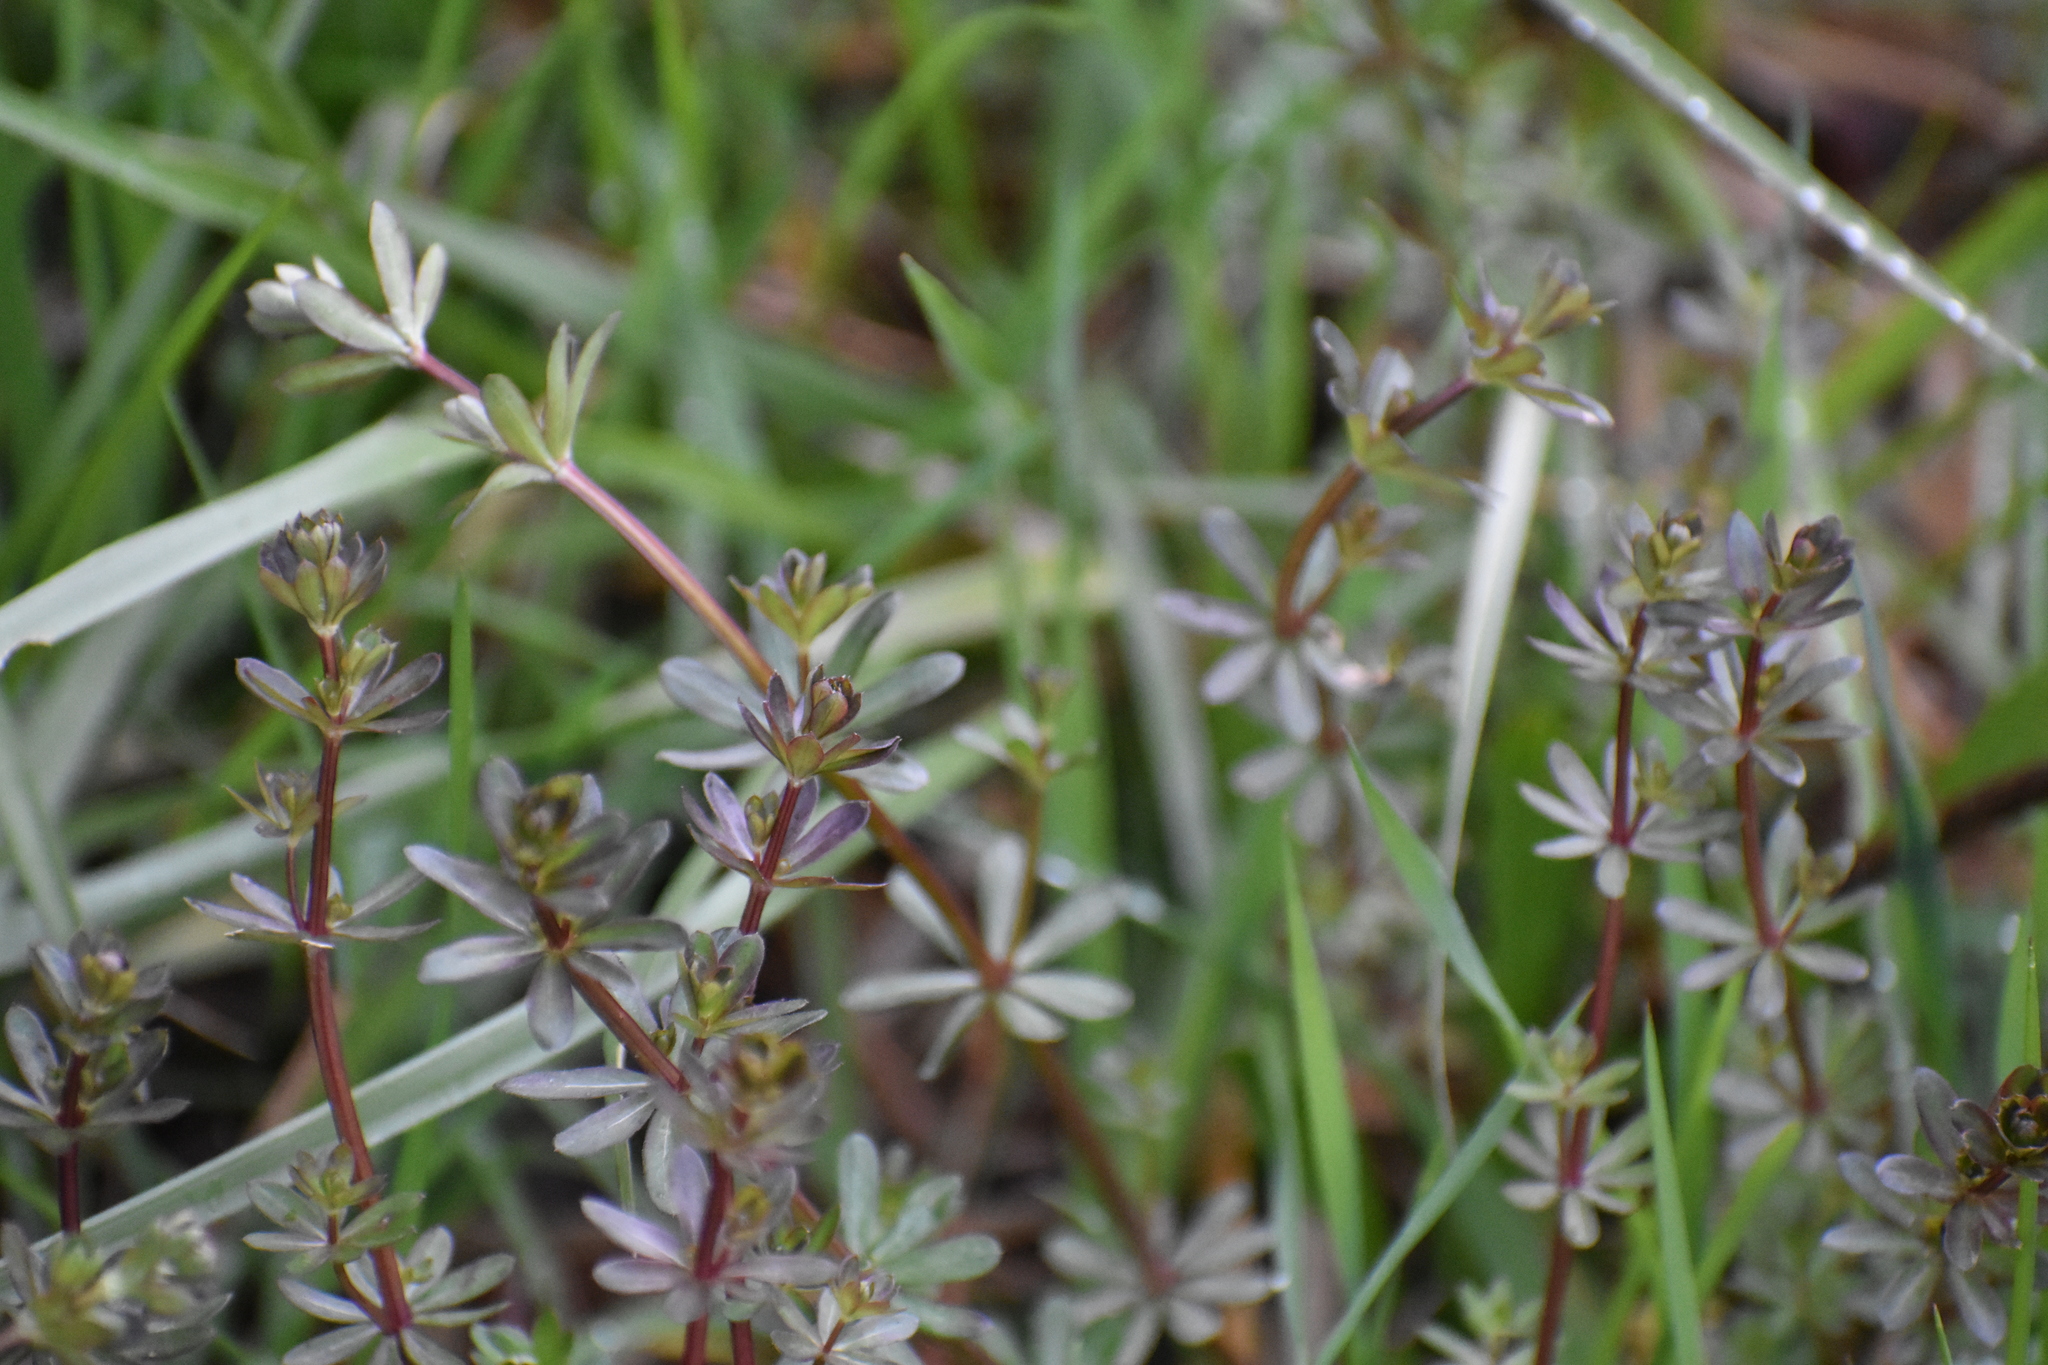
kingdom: Plantae
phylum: Tracheophyta
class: Magnoliopsida
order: Gentianales
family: Rubiaceae
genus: Galium
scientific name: Galium mollugo
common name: Hedge bedstraw
